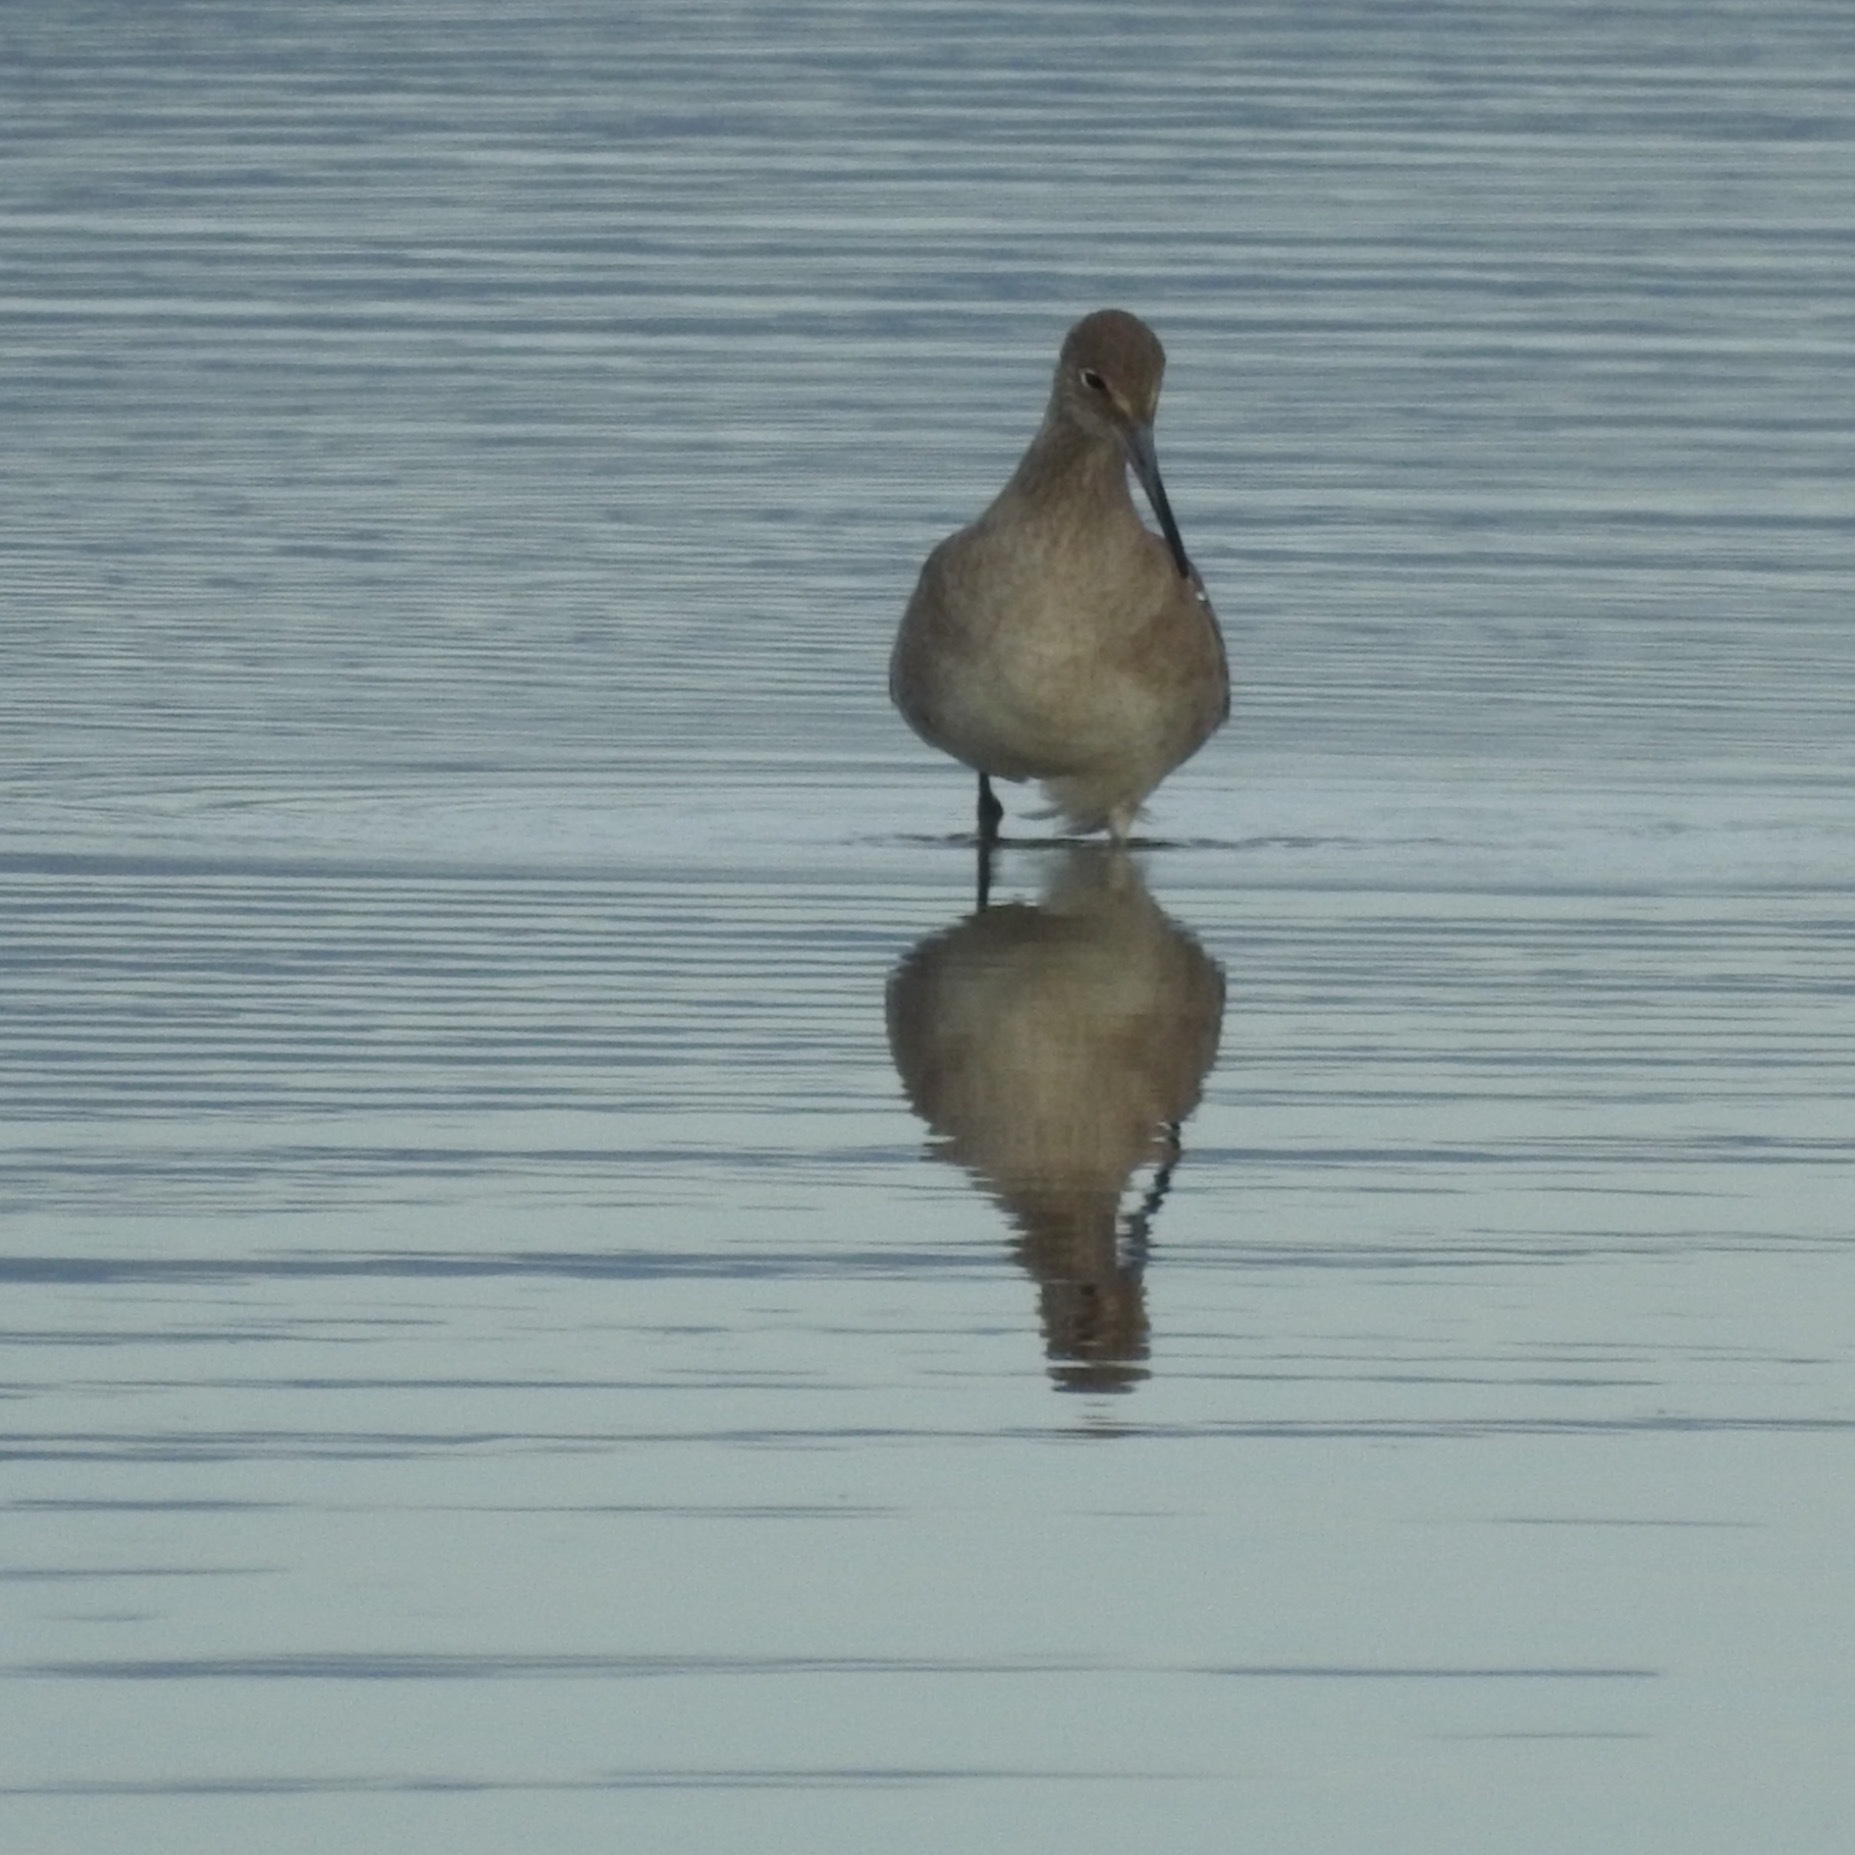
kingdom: Animalia
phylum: Chordata
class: Aves
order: Charadriiformes
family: Scolopacidae
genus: Tringa
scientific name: Tringa semipalmata
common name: Willet
